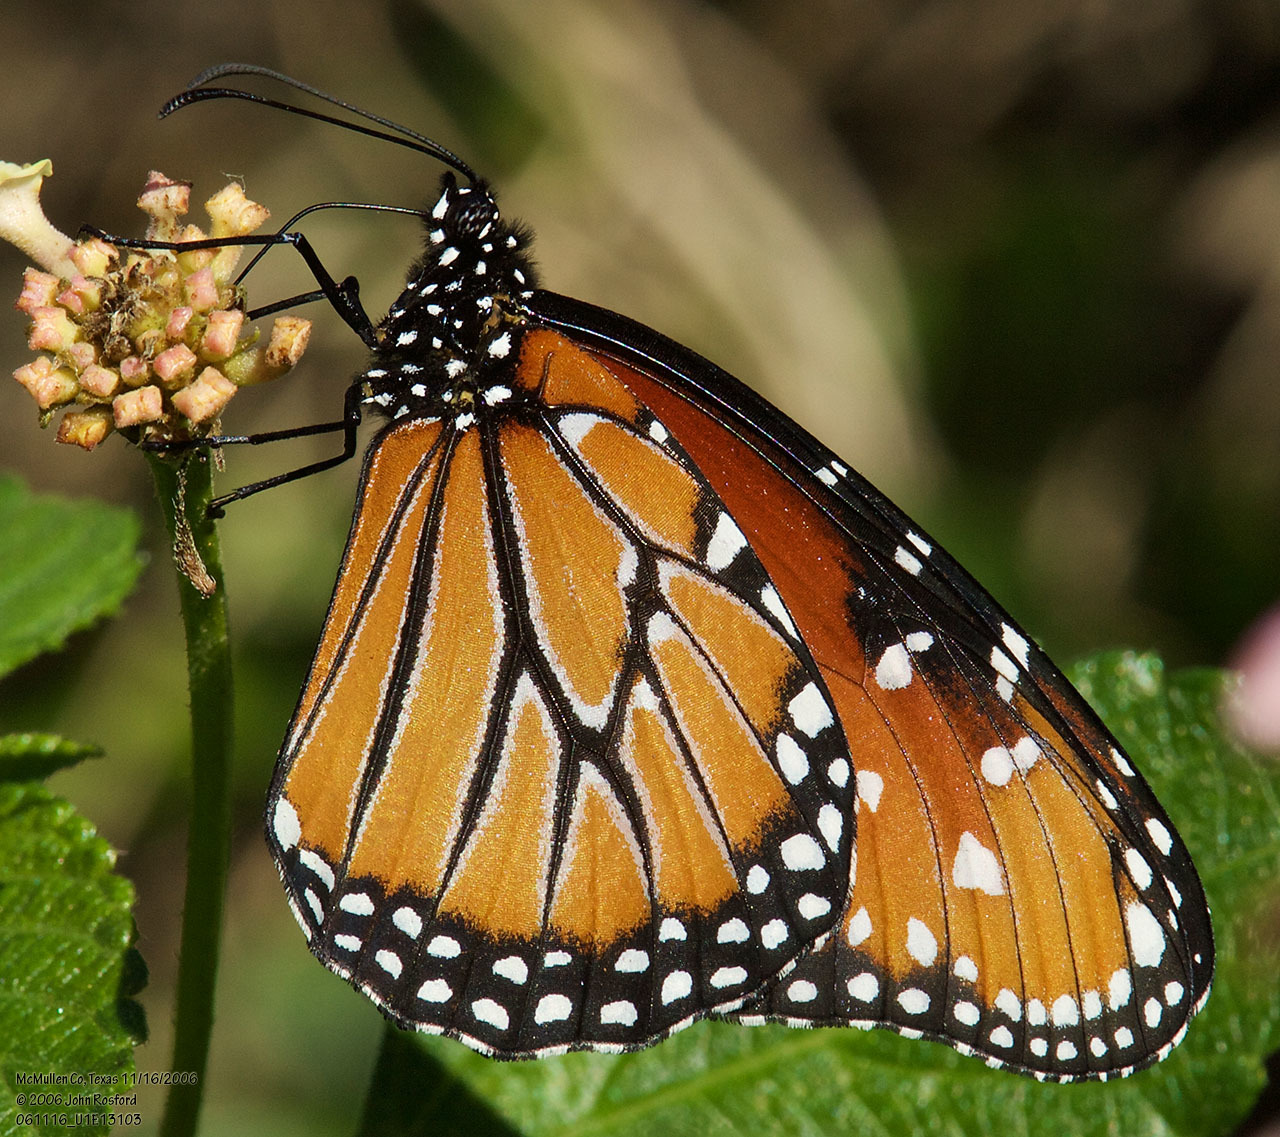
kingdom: Animalia
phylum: Arthropoda
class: Insecta
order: Lepidoptera
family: Nymphalidae
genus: Danaus
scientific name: Danaus gilippus
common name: Queen
